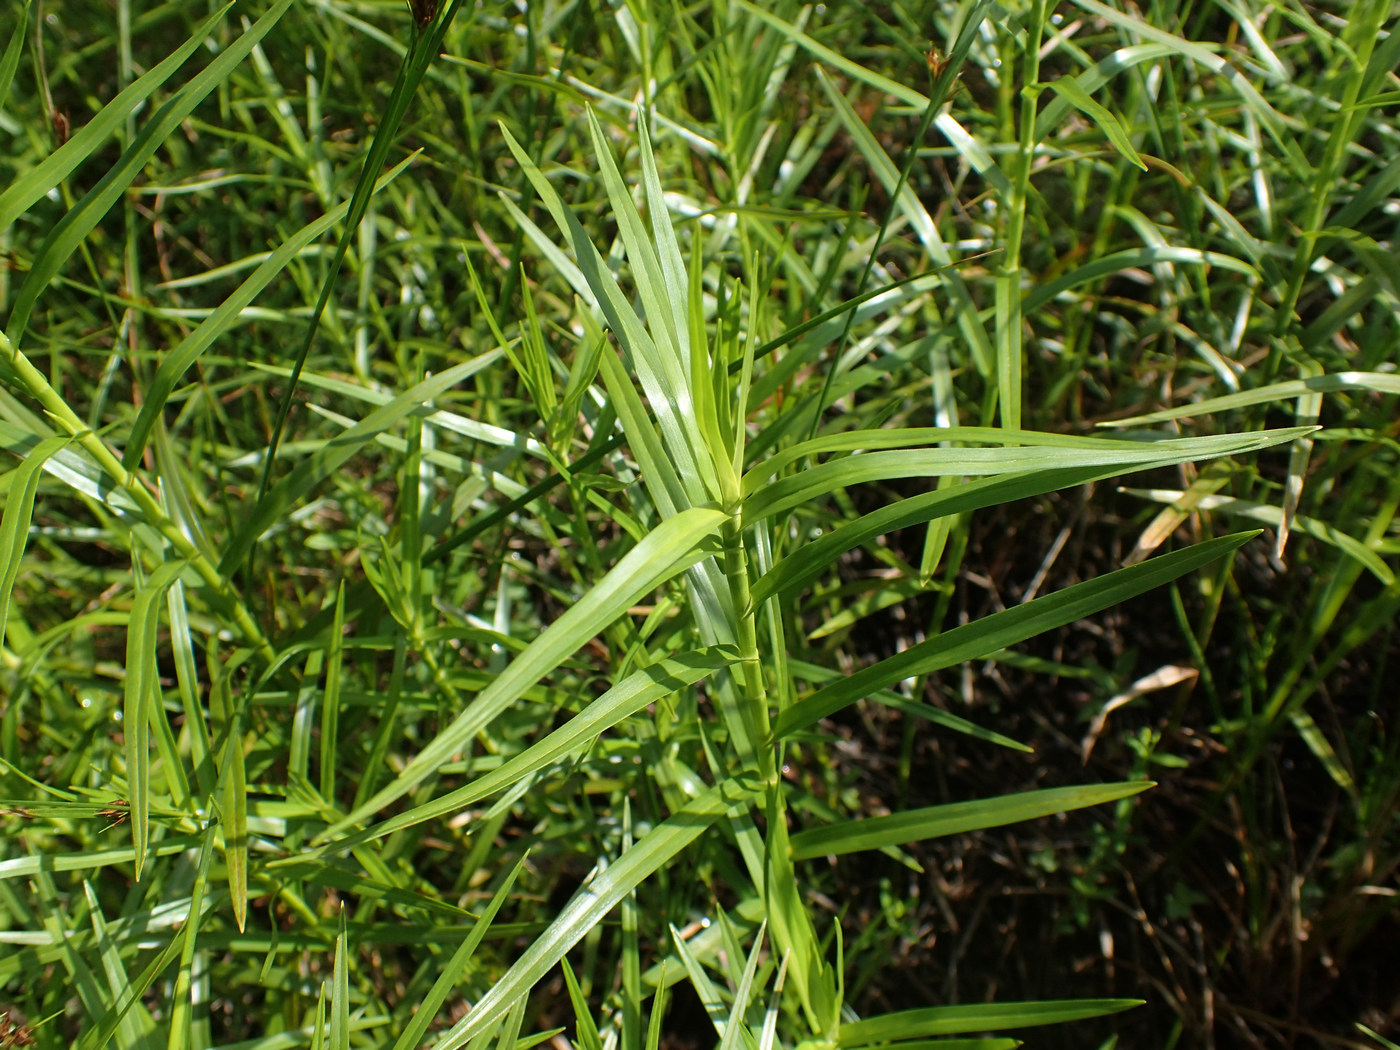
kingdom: Plantae
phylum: Tracheophyta
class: Liliopsida
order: Poales
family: Cyperaceae
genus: Dulichium
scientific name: Dulichium arundinaceum
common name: Three-way sedge
